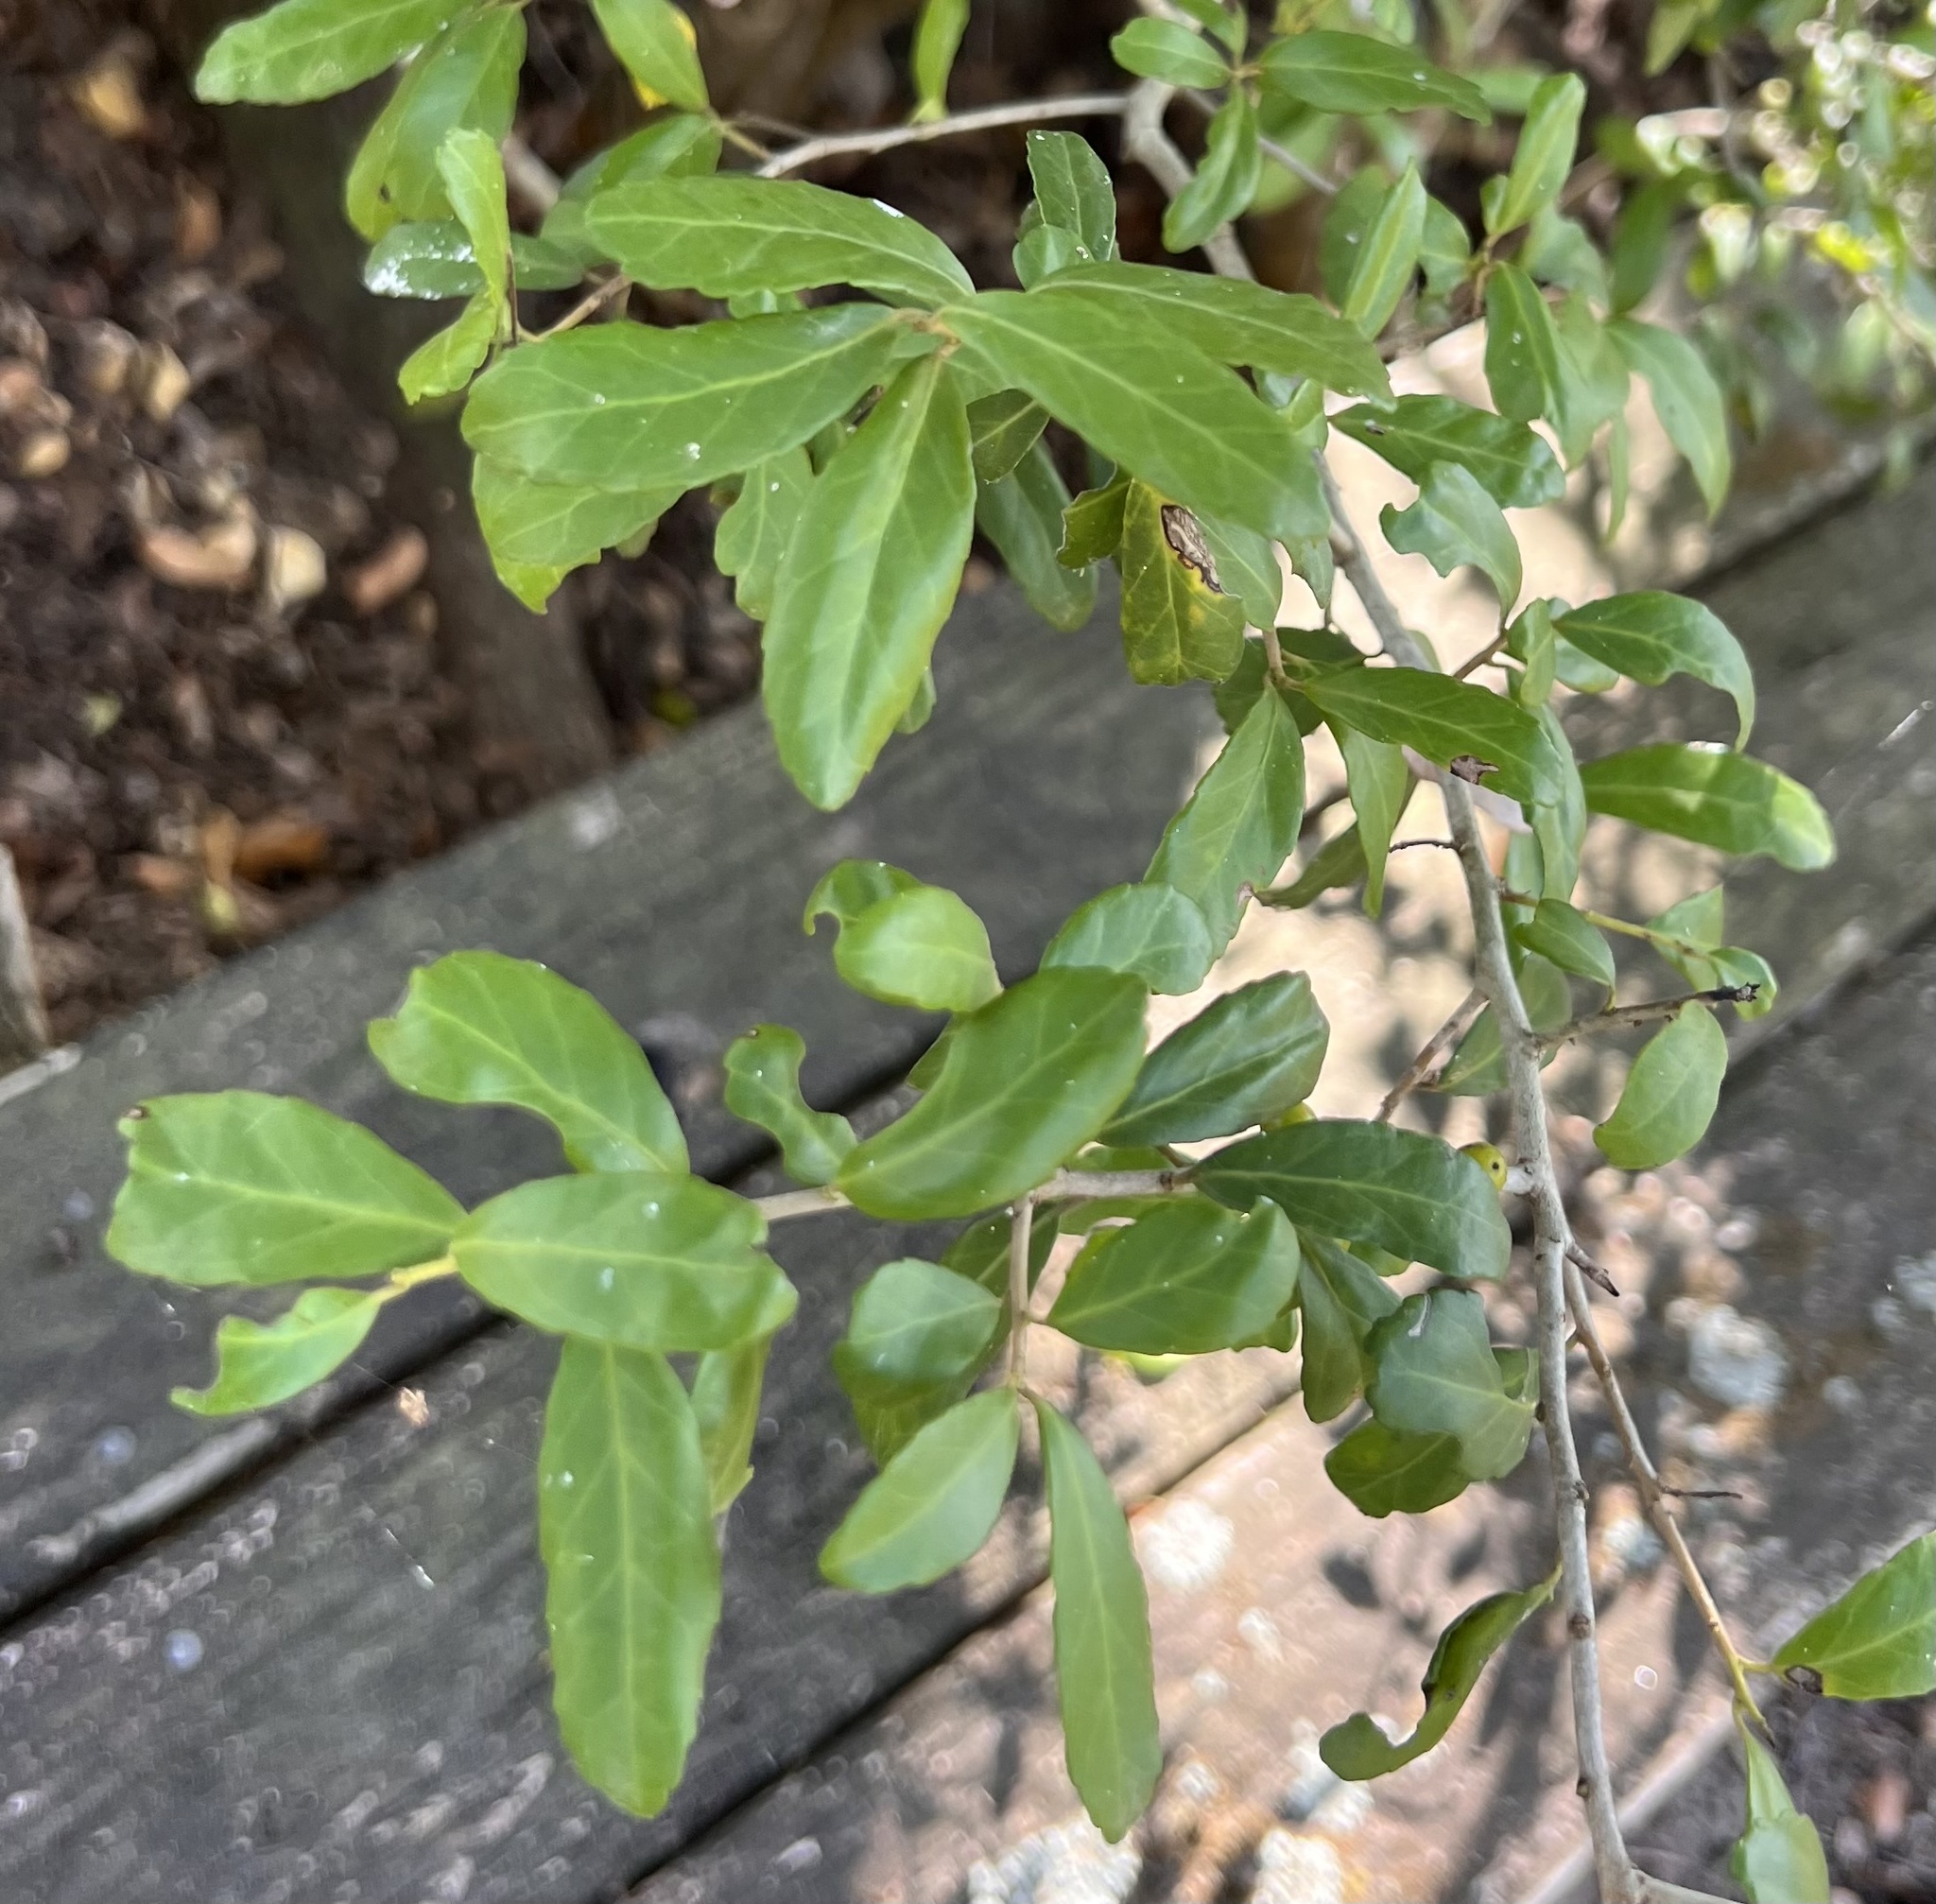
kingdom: Plantae
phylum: Tracheophyta
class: Magnoliopsida
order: Aquifoliales
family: Aquifoliaceae
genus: Ilex
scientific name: Ilex vomitoria
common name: Yaupon holly
